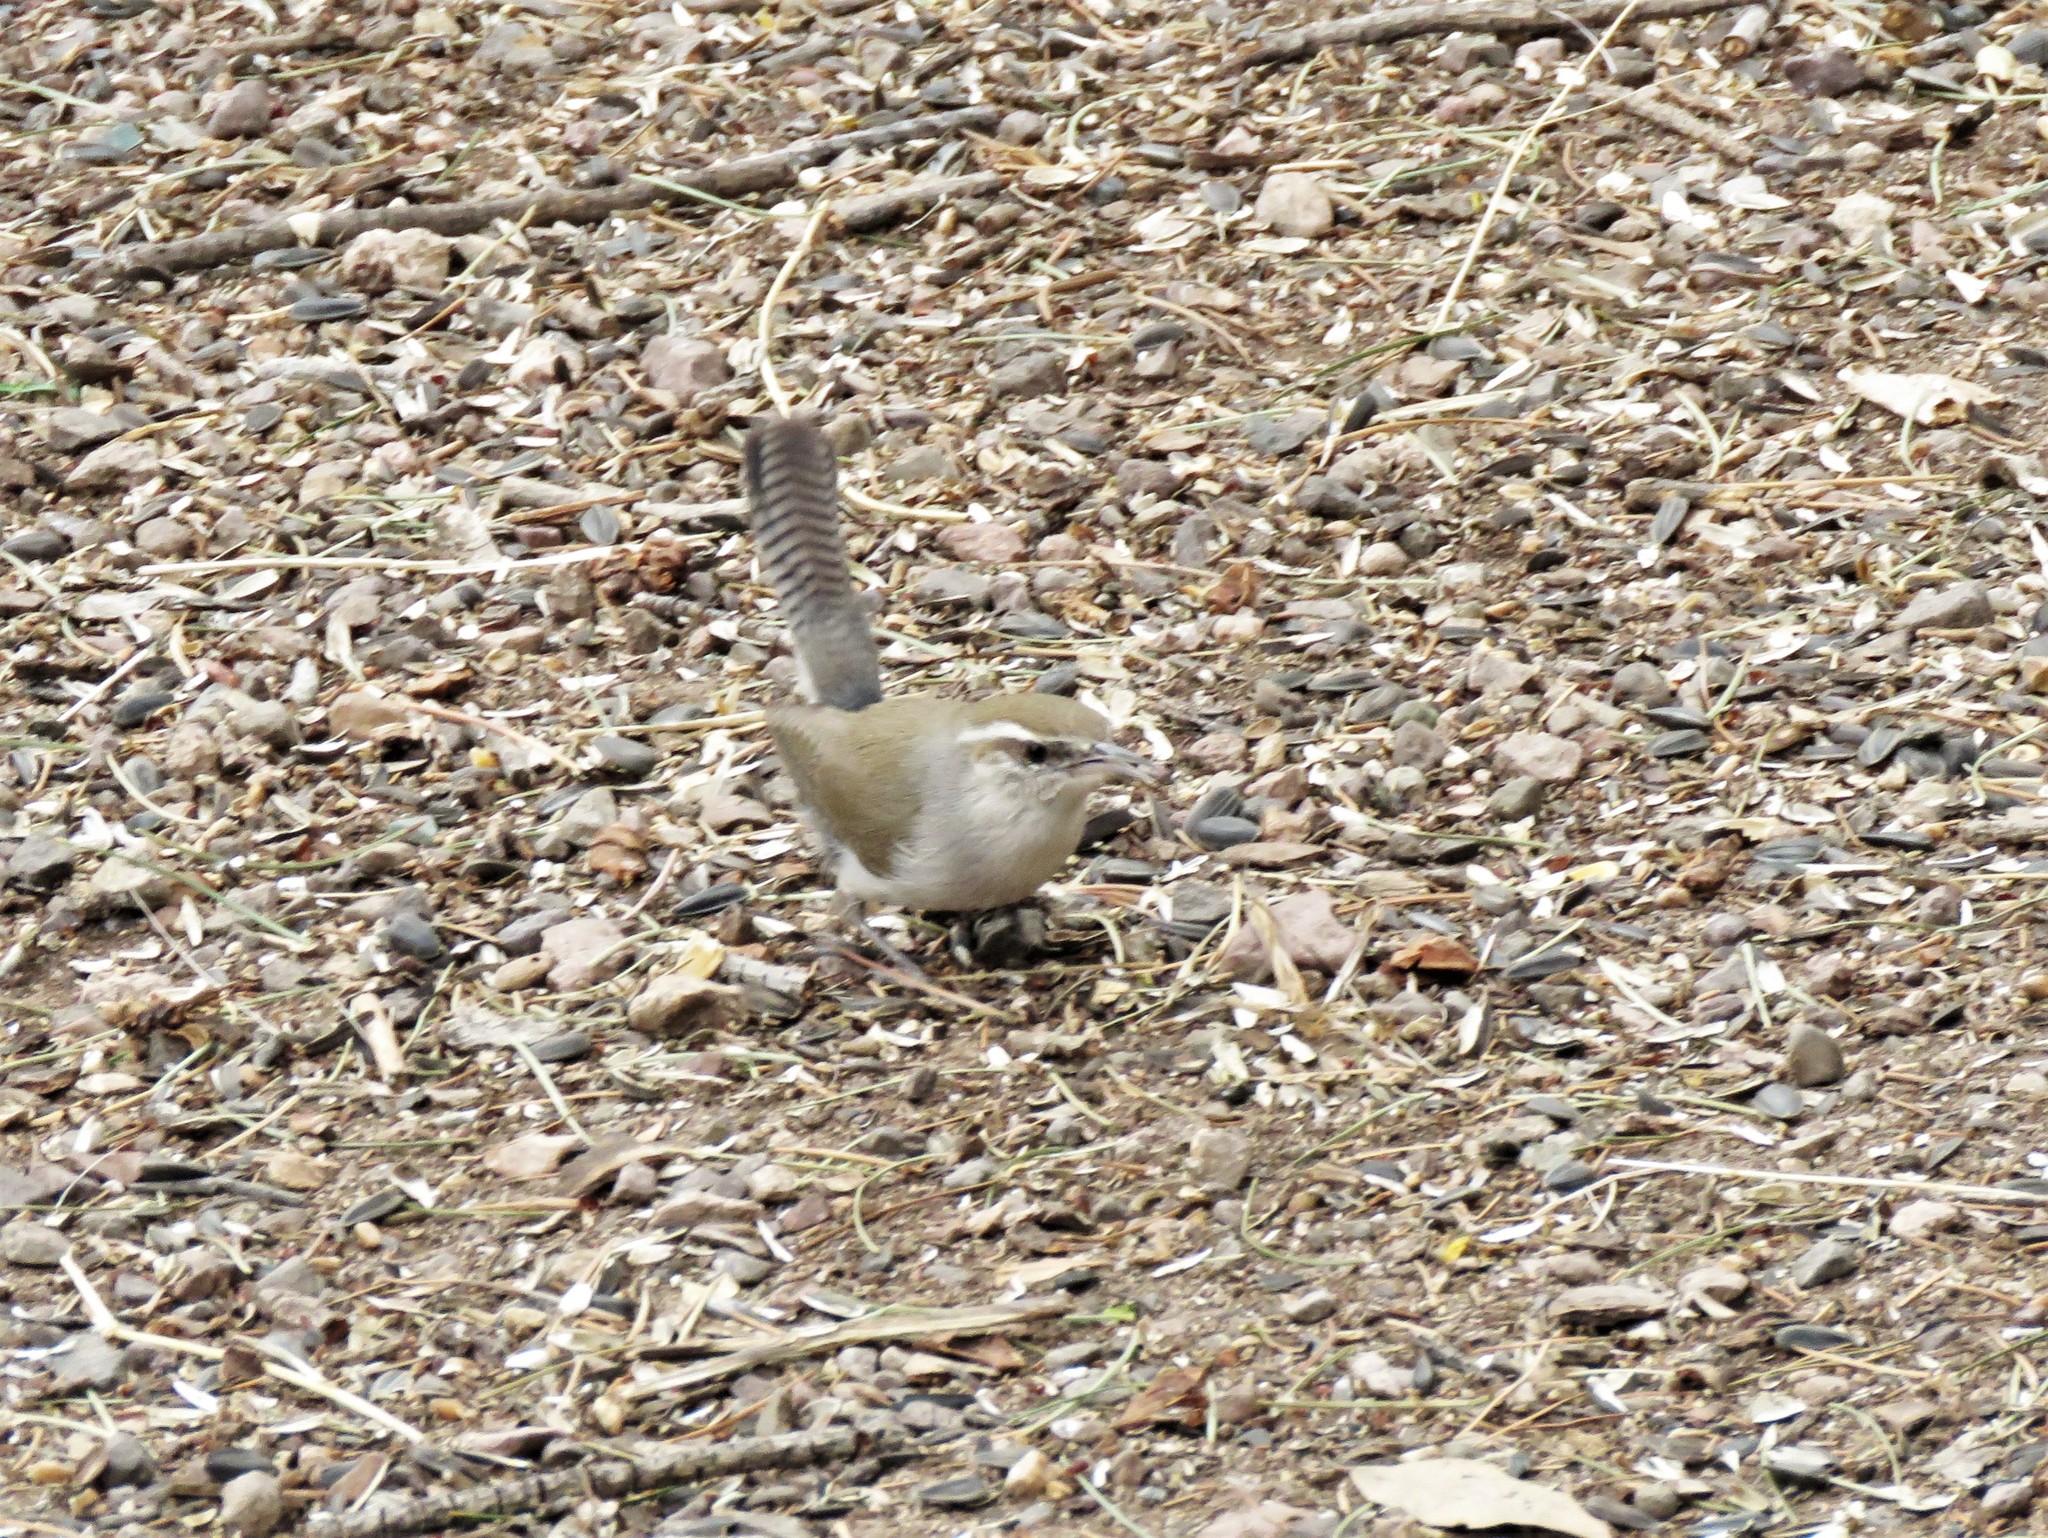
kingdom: Animalia
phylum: Chordata
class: Aves
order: Passeriformes
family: Troglodytidae
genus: Thryomanes
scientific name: Thryomanes bewickii
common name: Bewick's wren
